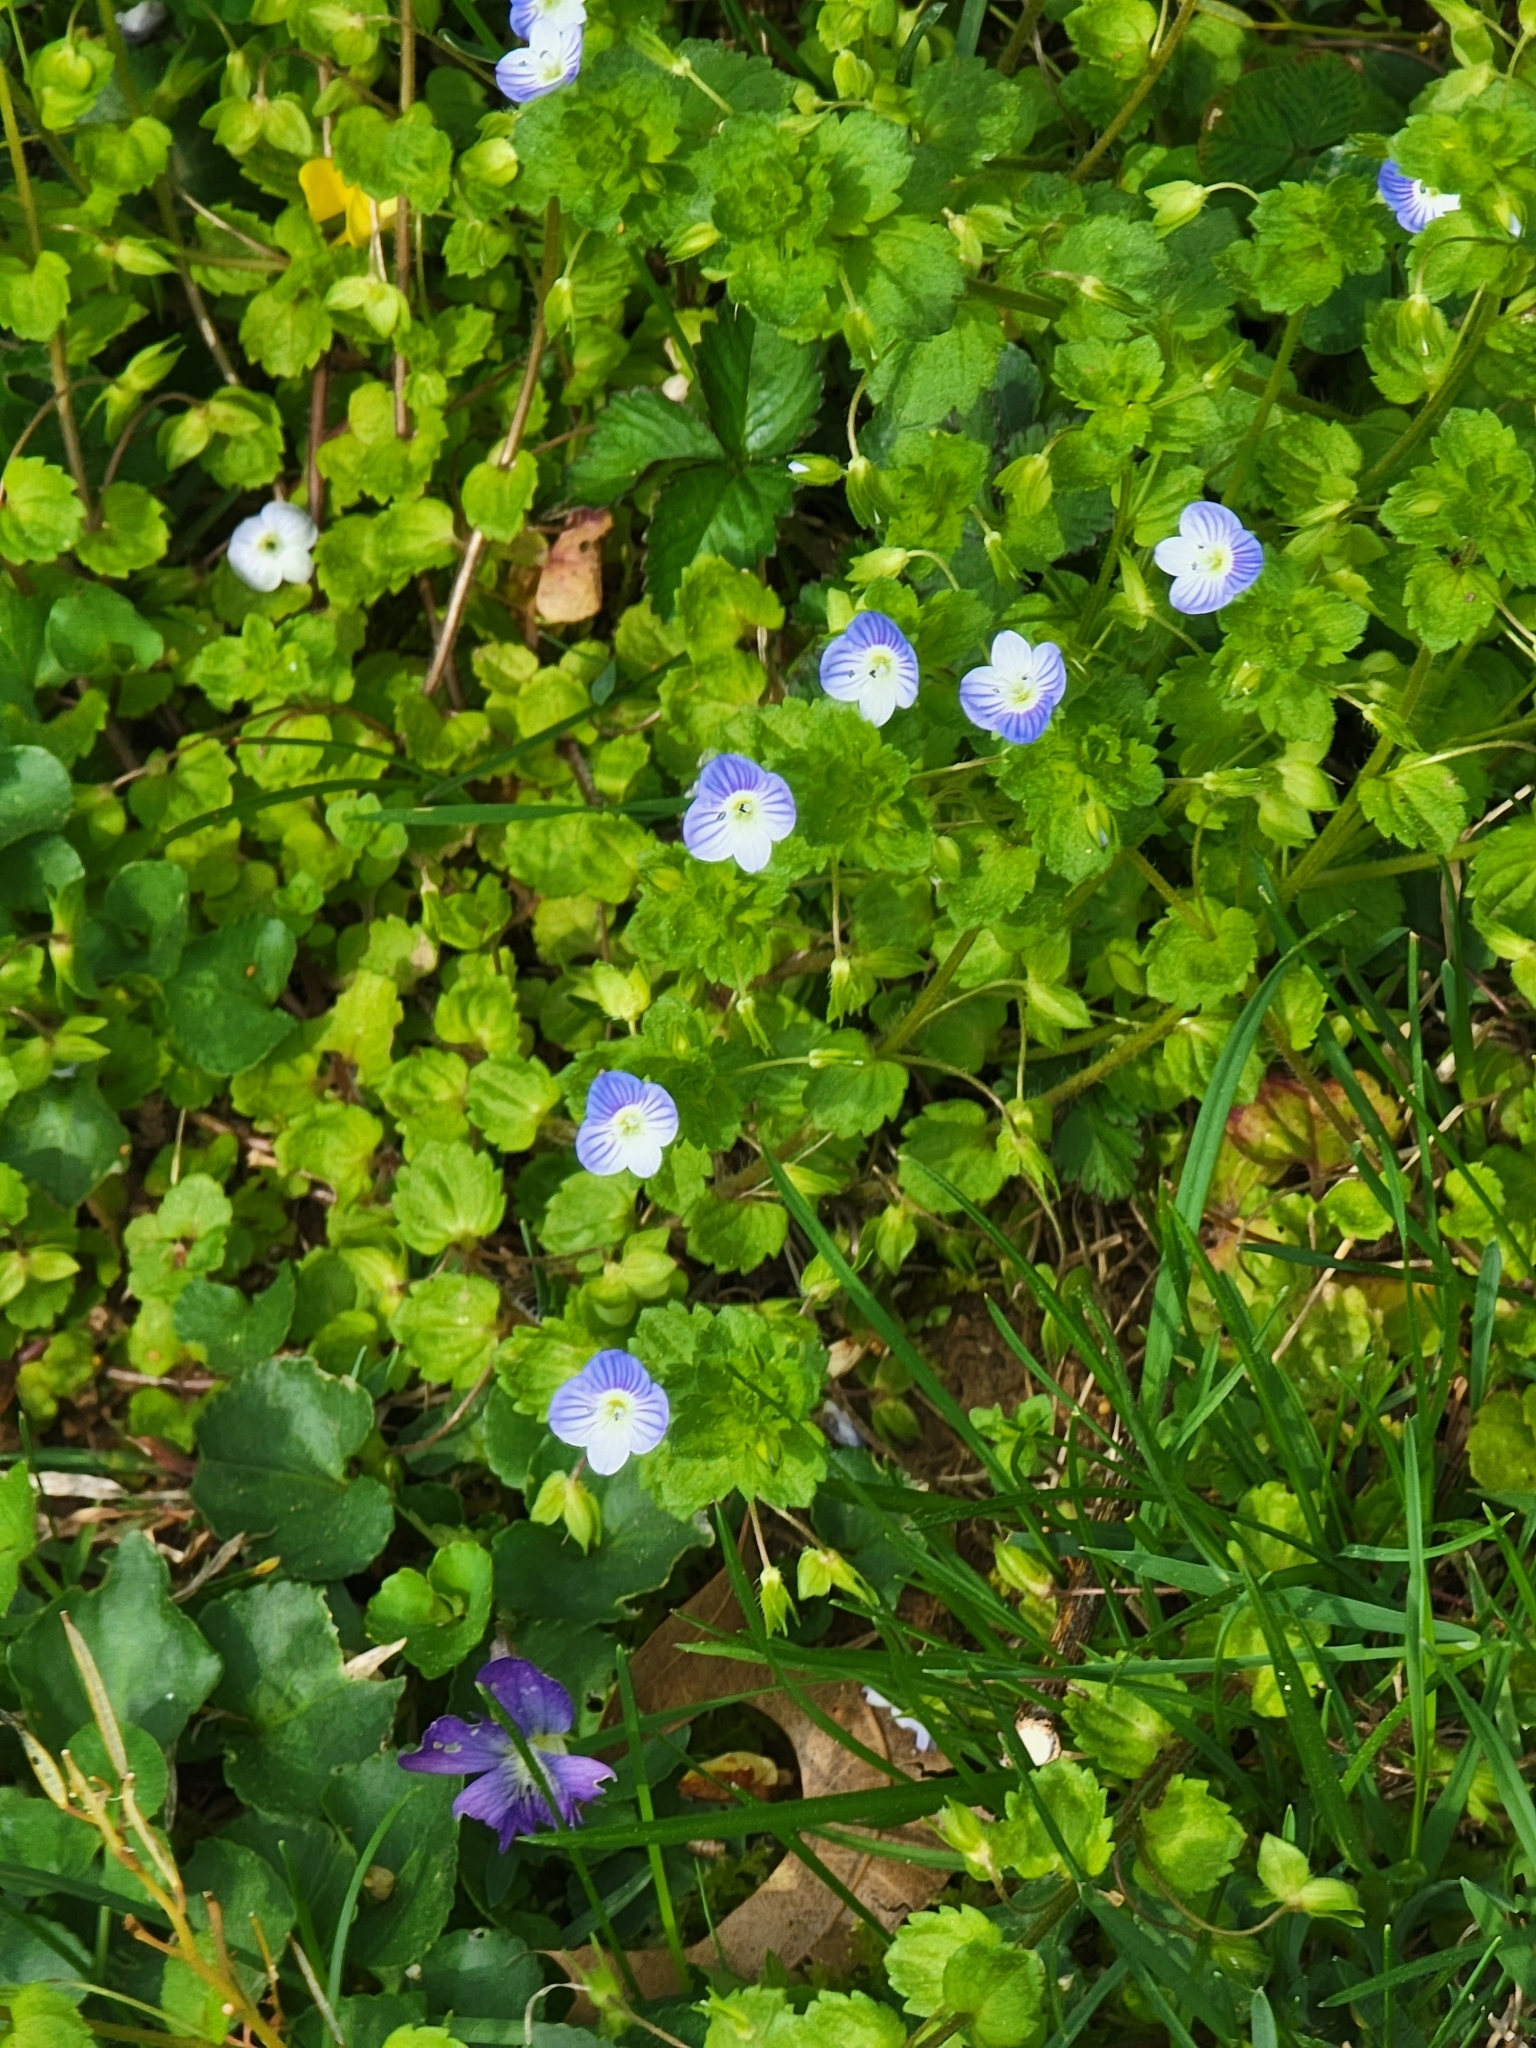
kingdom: Plantae
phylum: Tracheophyta
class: Magnoliopsida
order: Lamiales
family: Plantaginaceae
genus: Veronica
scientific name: Veronica persica
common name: Common field-speedwell
